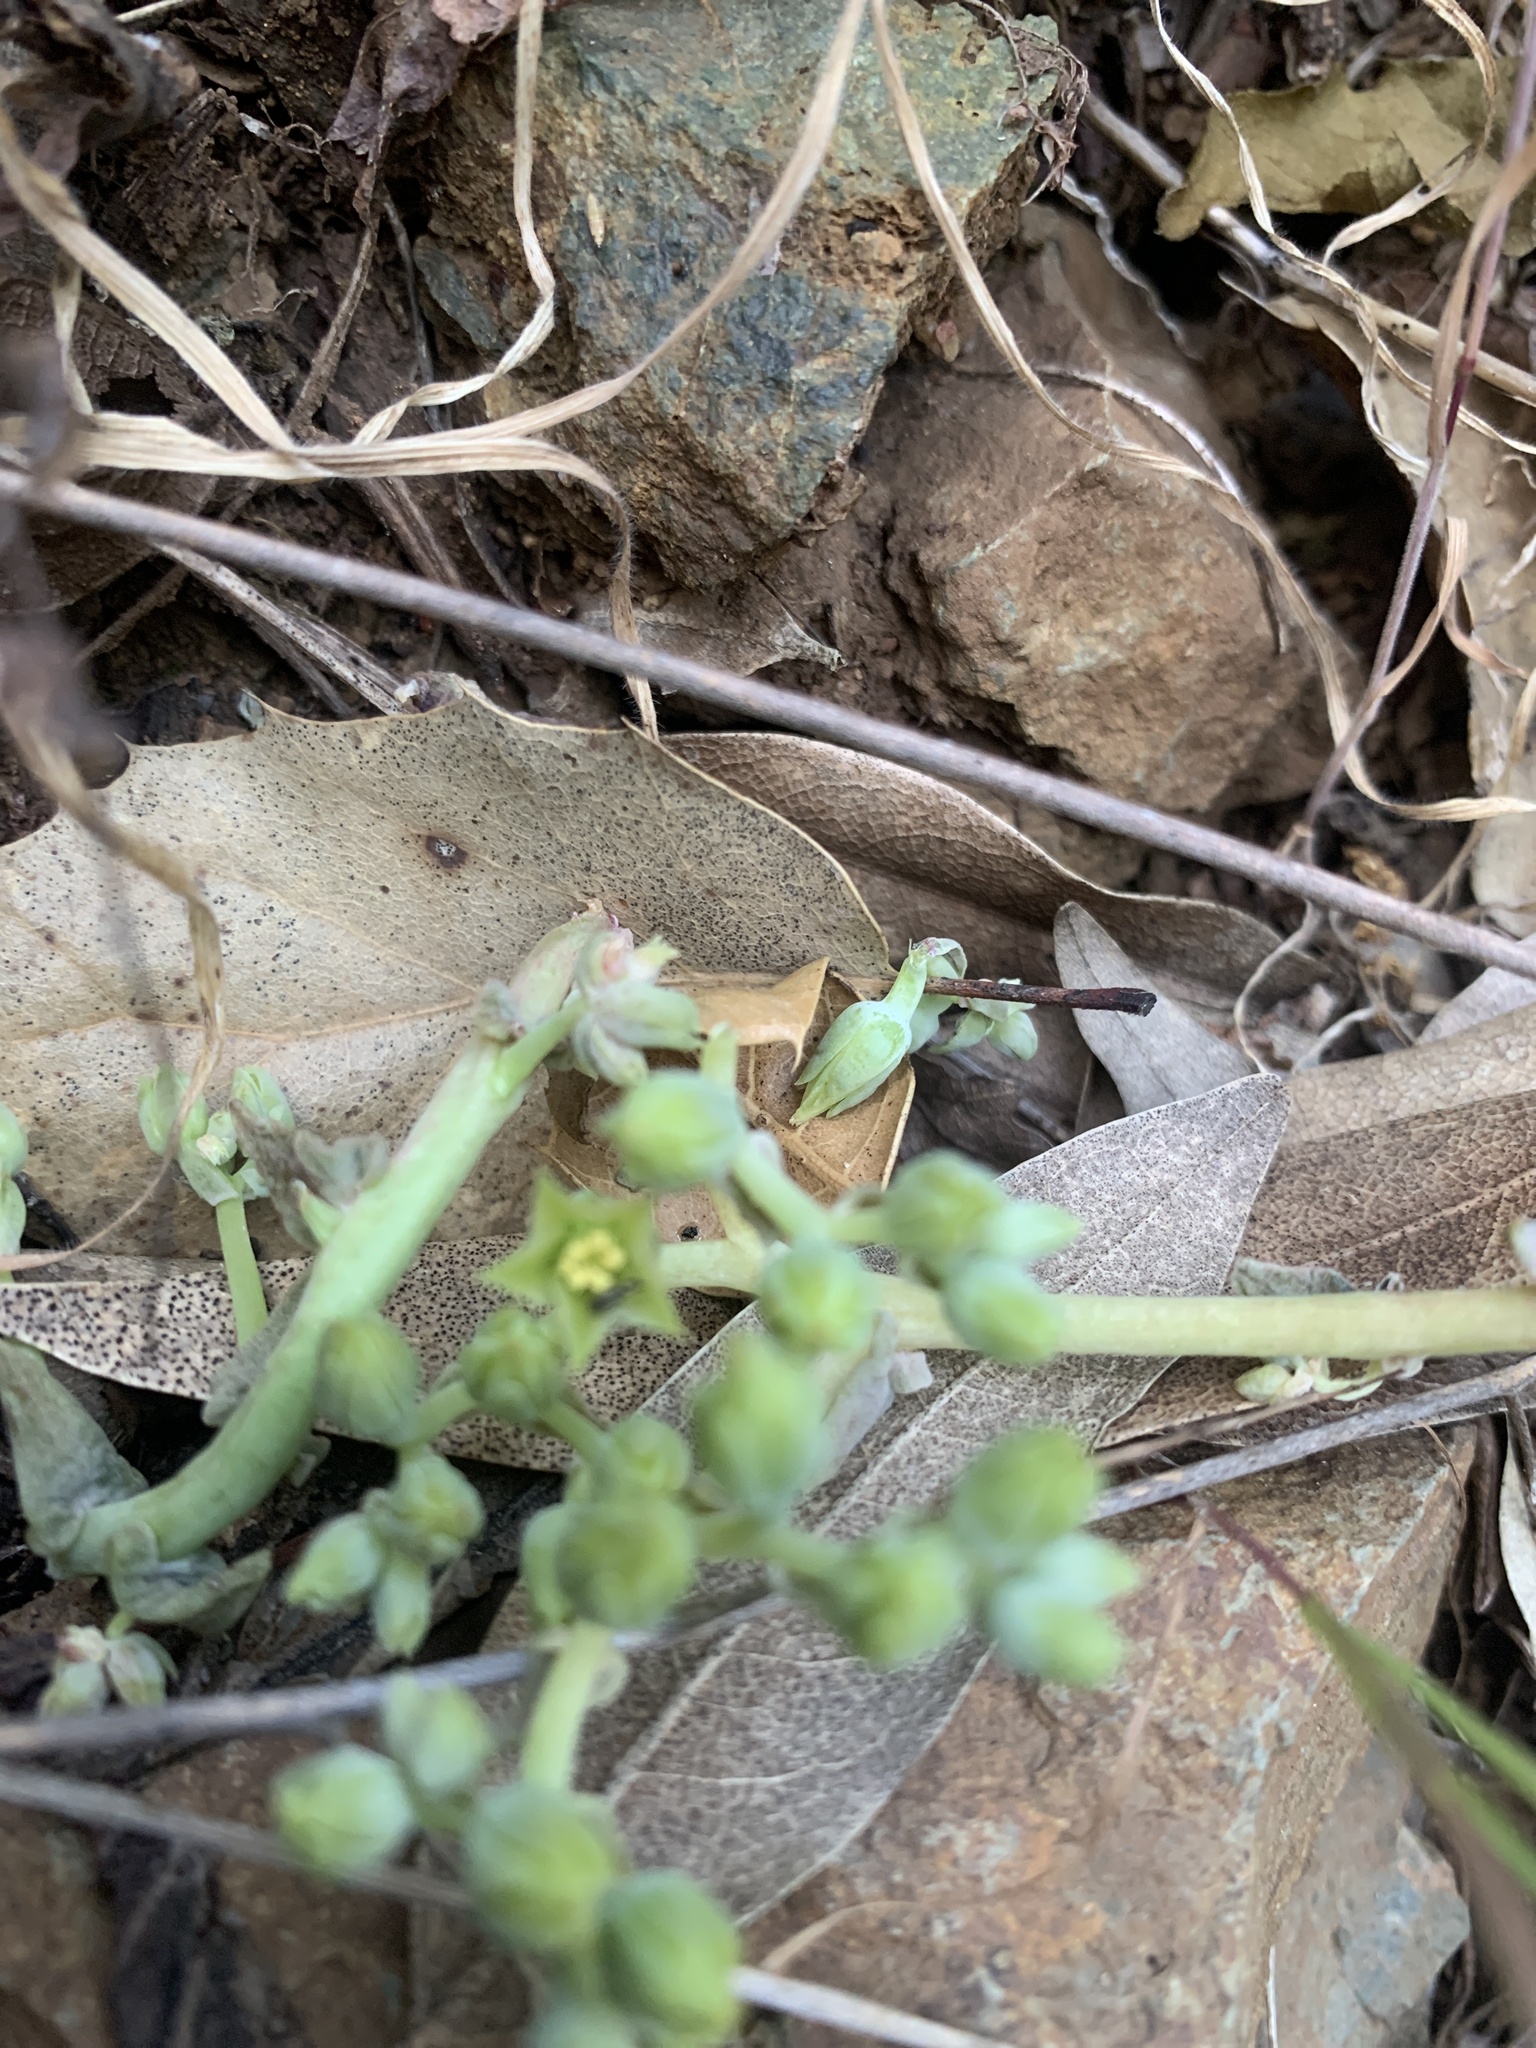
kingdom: Plantae
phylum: Tracheophyta
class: Magnoliopsida
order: Saxifragales
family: Crassulaceae
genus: Dudleya
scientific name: Dudleya cymosa
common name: Canyon dudleya
